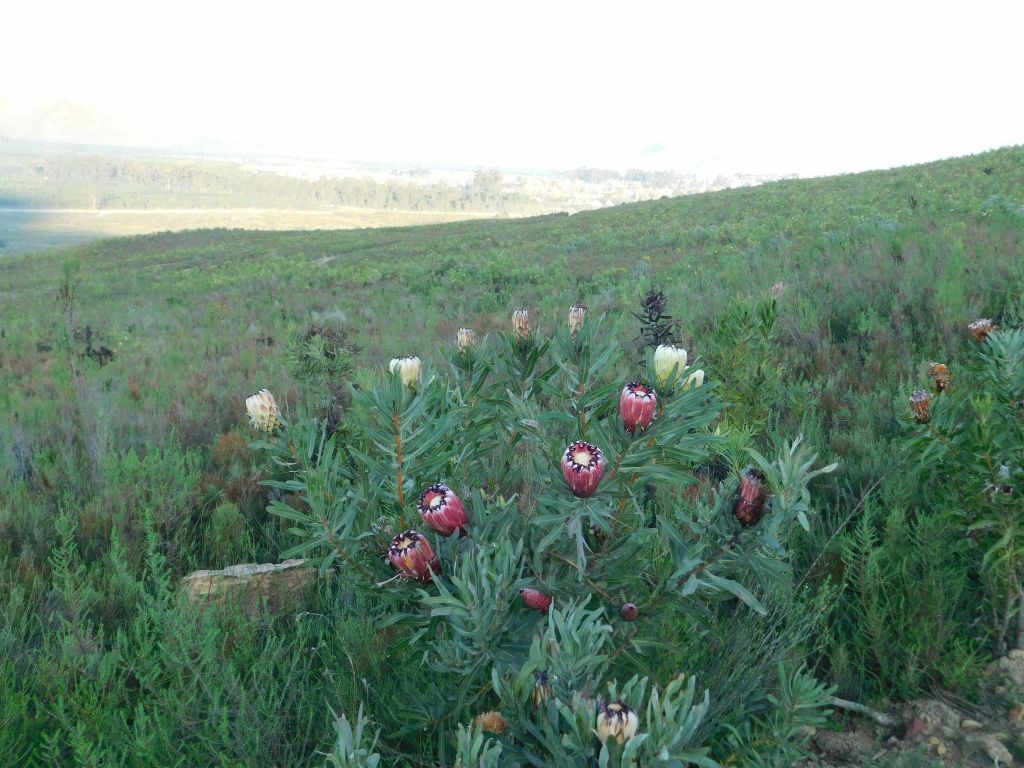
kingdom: Plantae
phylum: Tracheophyta
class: Magnoliopsida
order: Proteales
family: Proteaceae
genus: Protea
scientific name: Protea neriifolia
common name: Blue sugarbush
